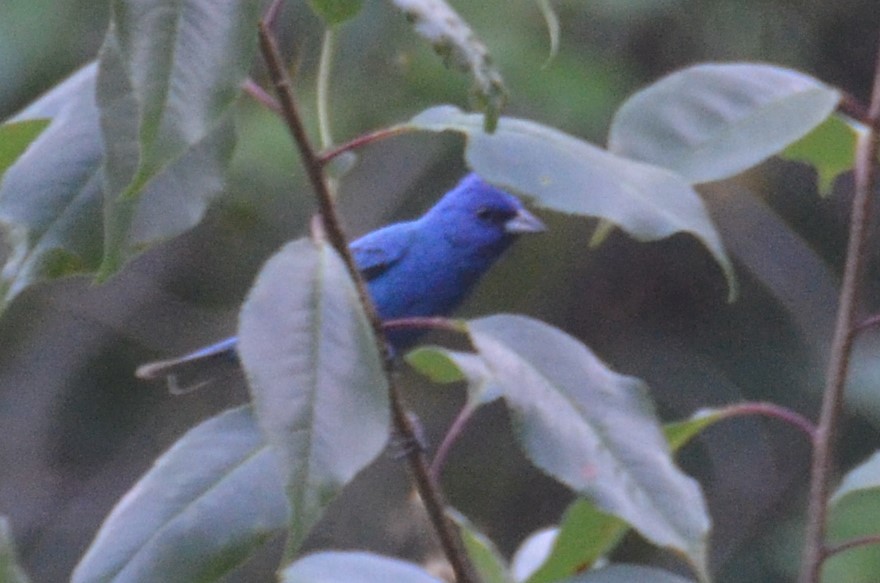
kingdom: Animalia
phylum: Chordata
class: Aves
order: Passeriformes
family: Cardinalidae
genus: Passerina
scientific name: Passerina cyanea
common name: Indigo bunting
